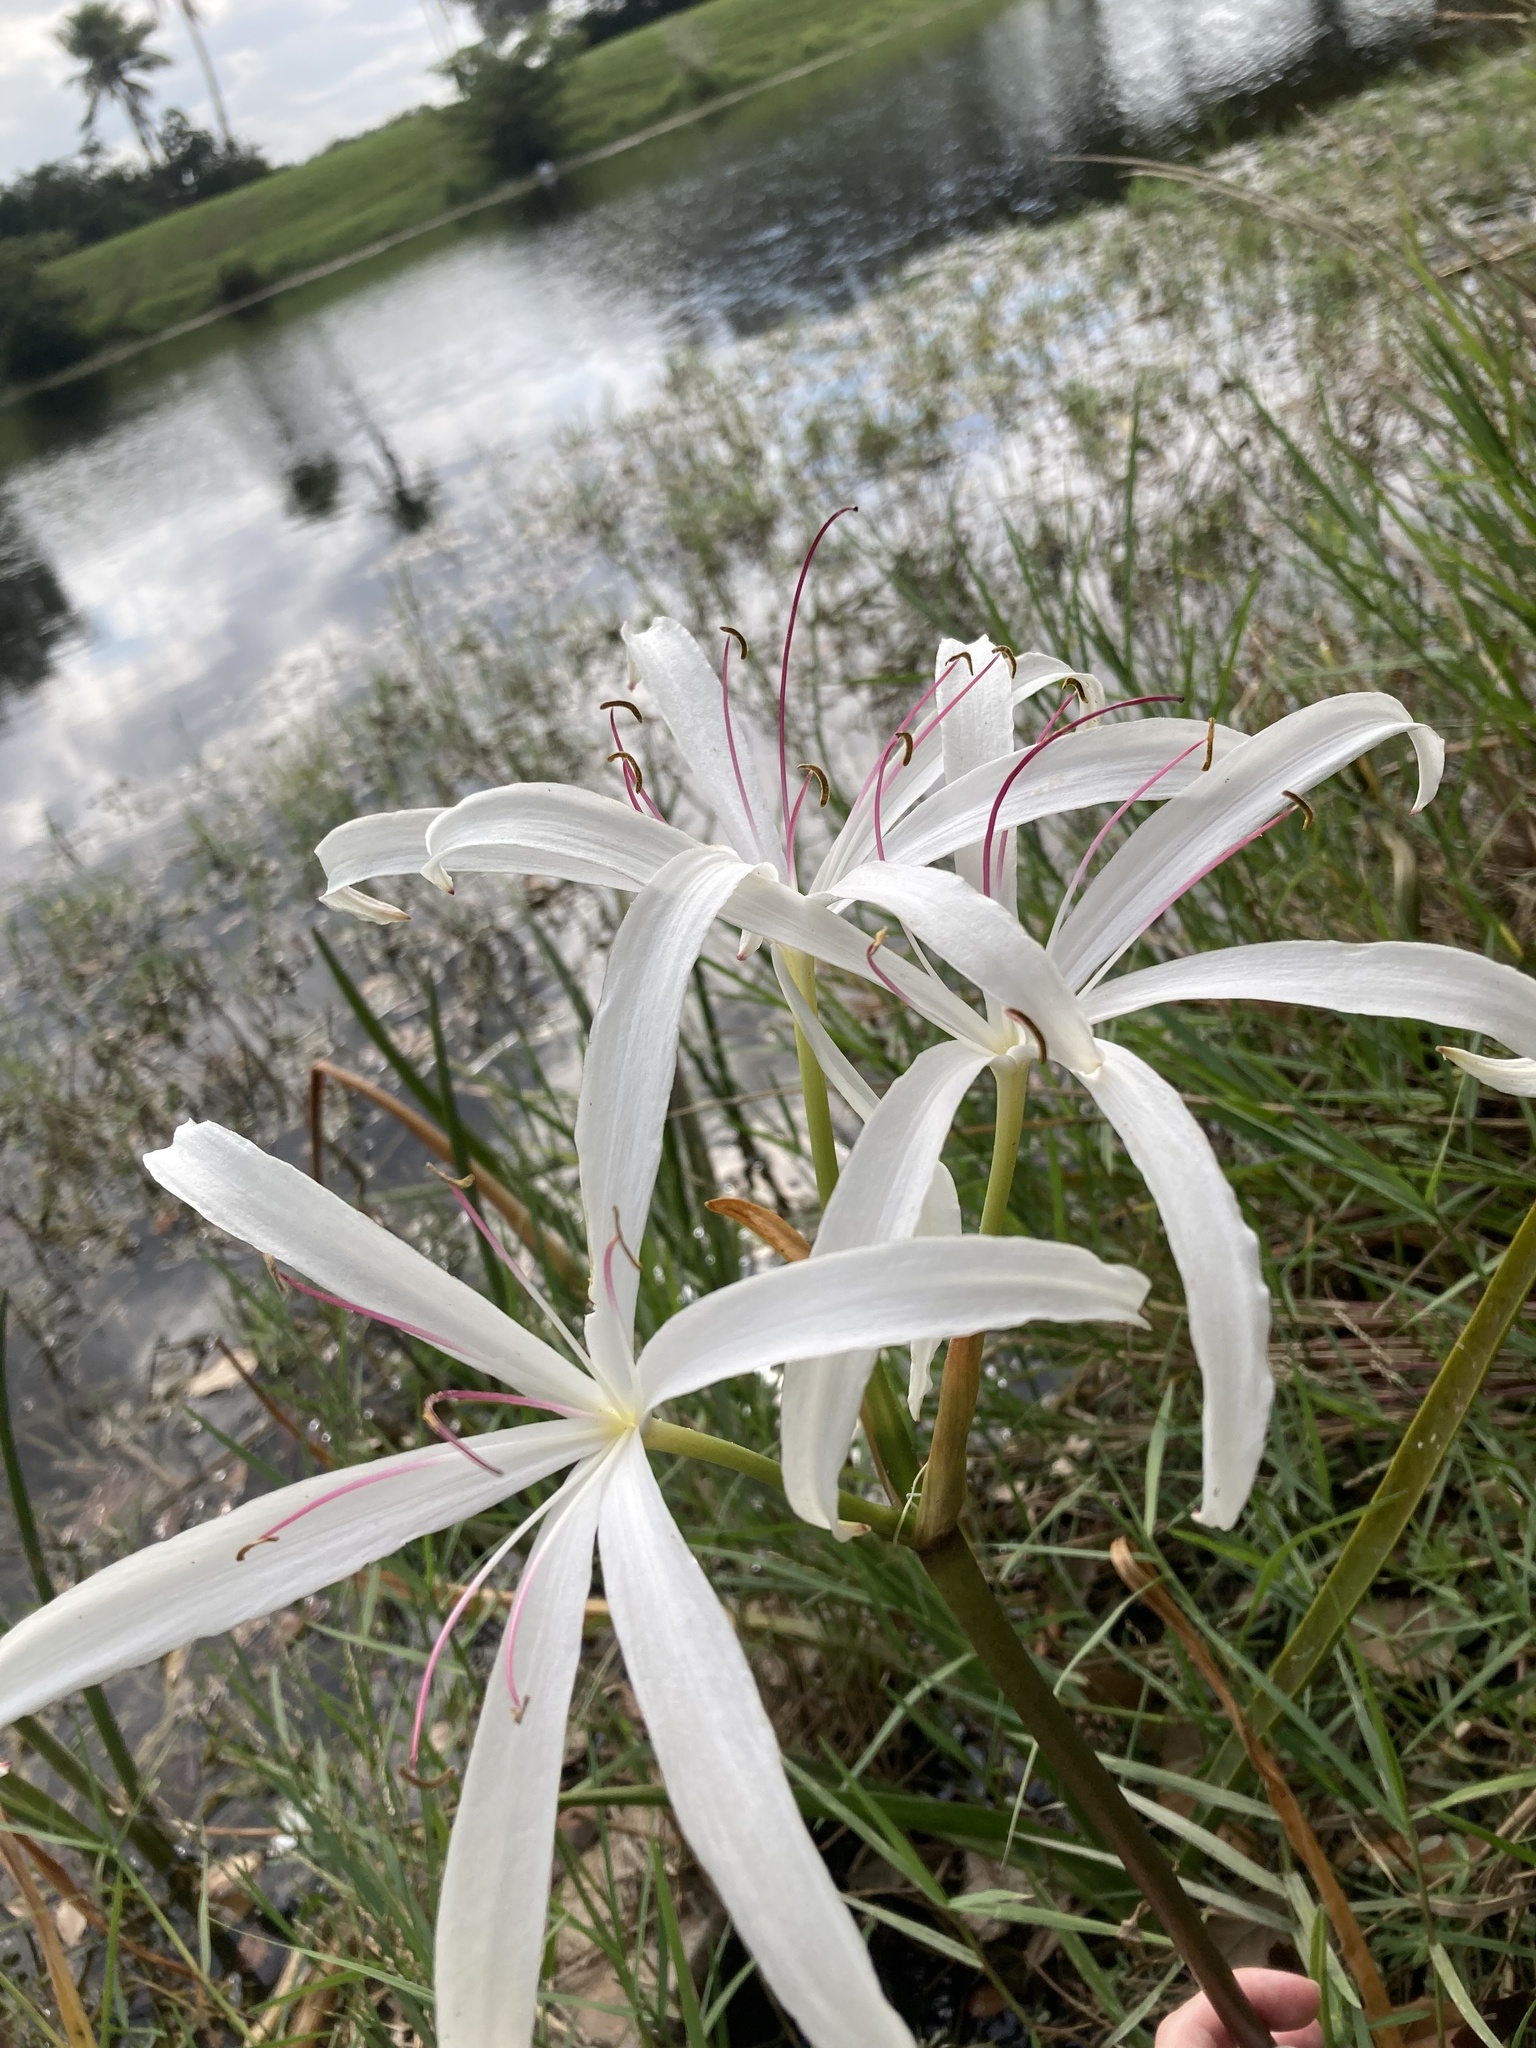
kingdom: Plantae
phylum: Tracheophyta
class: Liliopsida
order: Asparagales
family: Amaryllidaceae
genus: Crinum
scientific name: Crinum americanum
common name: Florida swamp-lily
